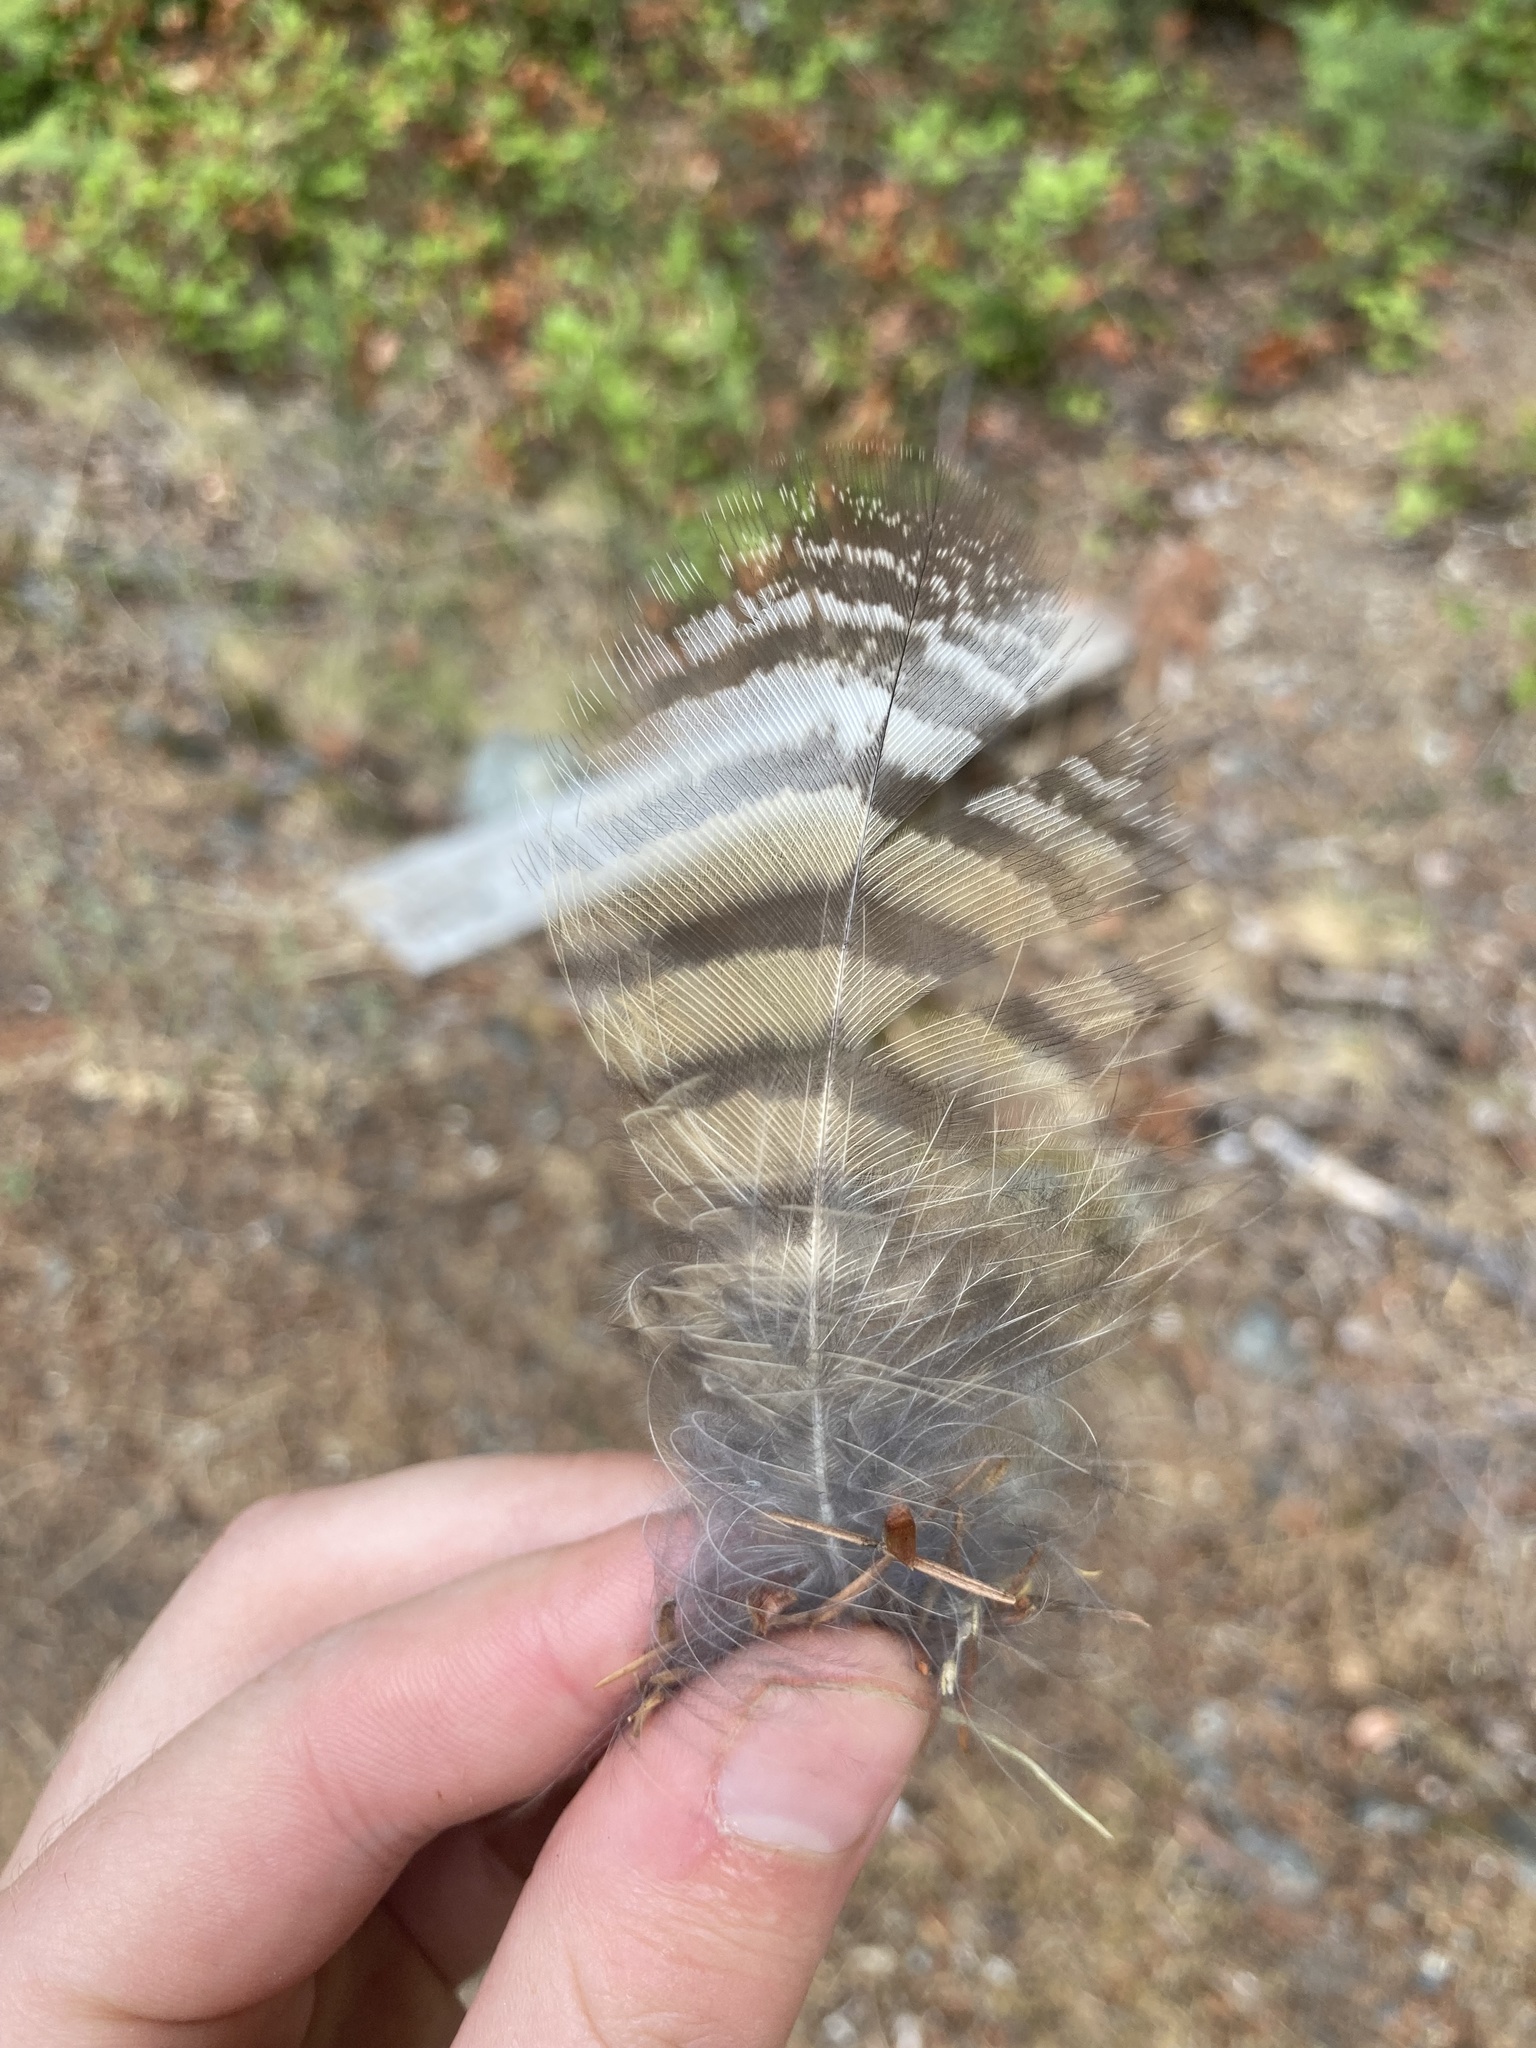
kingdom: Animalia
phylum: Chordata
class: Aves
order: Strigiformes
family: Strigidae
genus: Bubo
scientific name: Bubo virginianus
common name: Great horned owl
